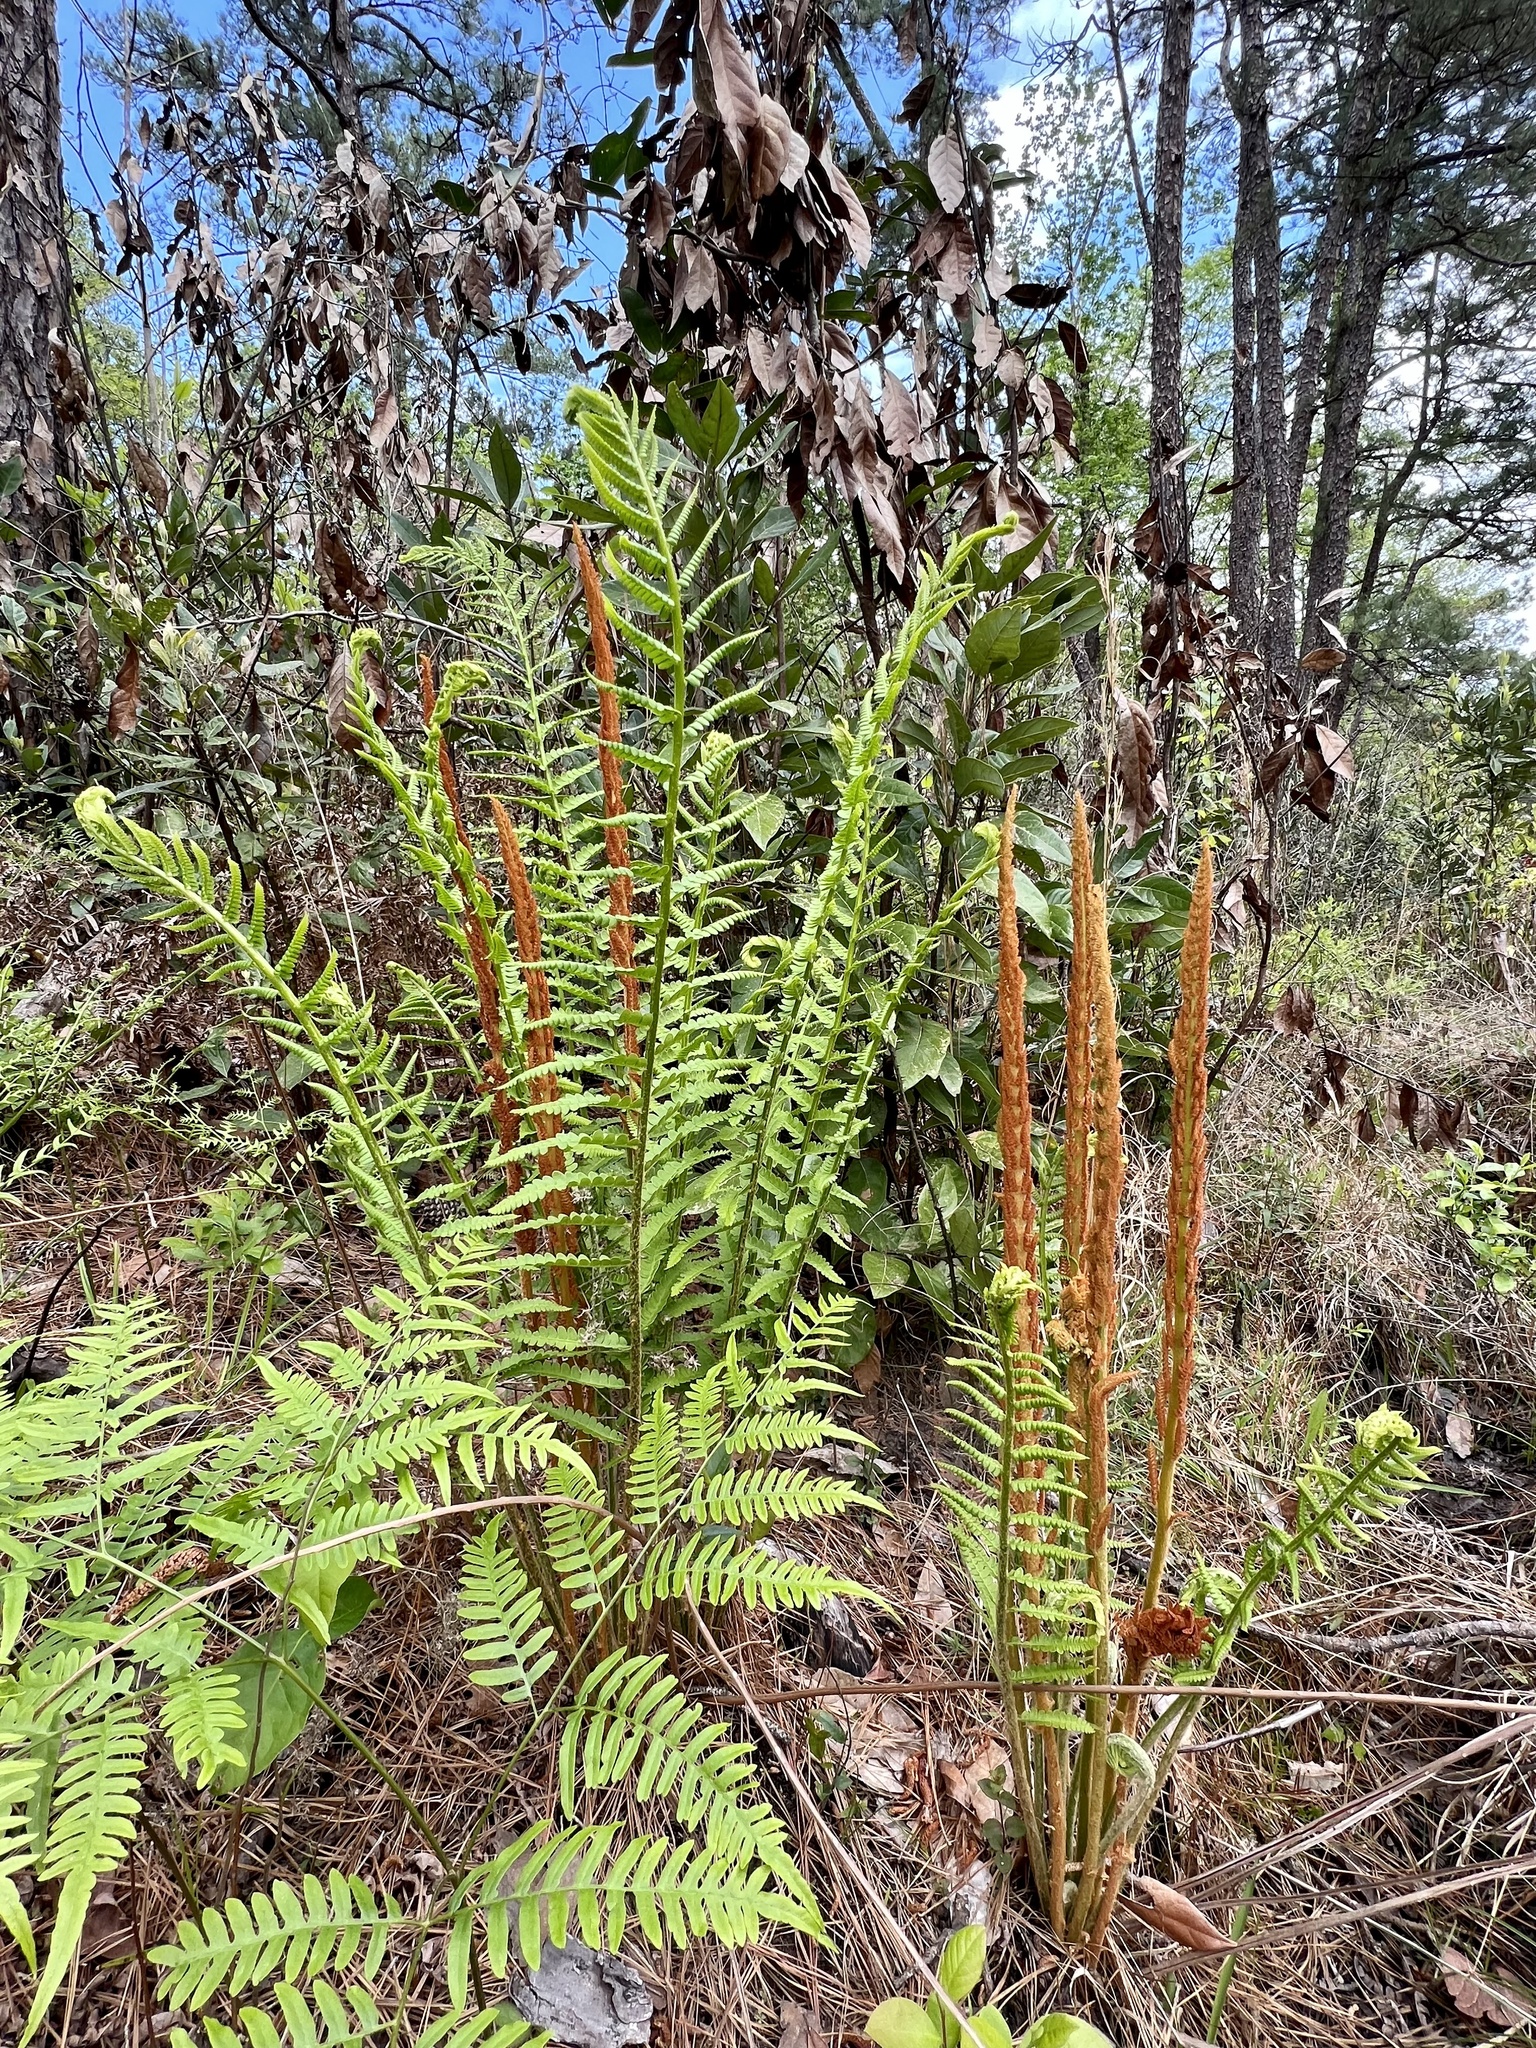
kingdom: Plantae
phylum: Tracheophyta
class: Polypodiopsida
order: Osmundales
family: Osmundaceae
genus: Osmundastrum
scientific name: Osmundastrum cinnamomeum
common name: Cinnamon fern
